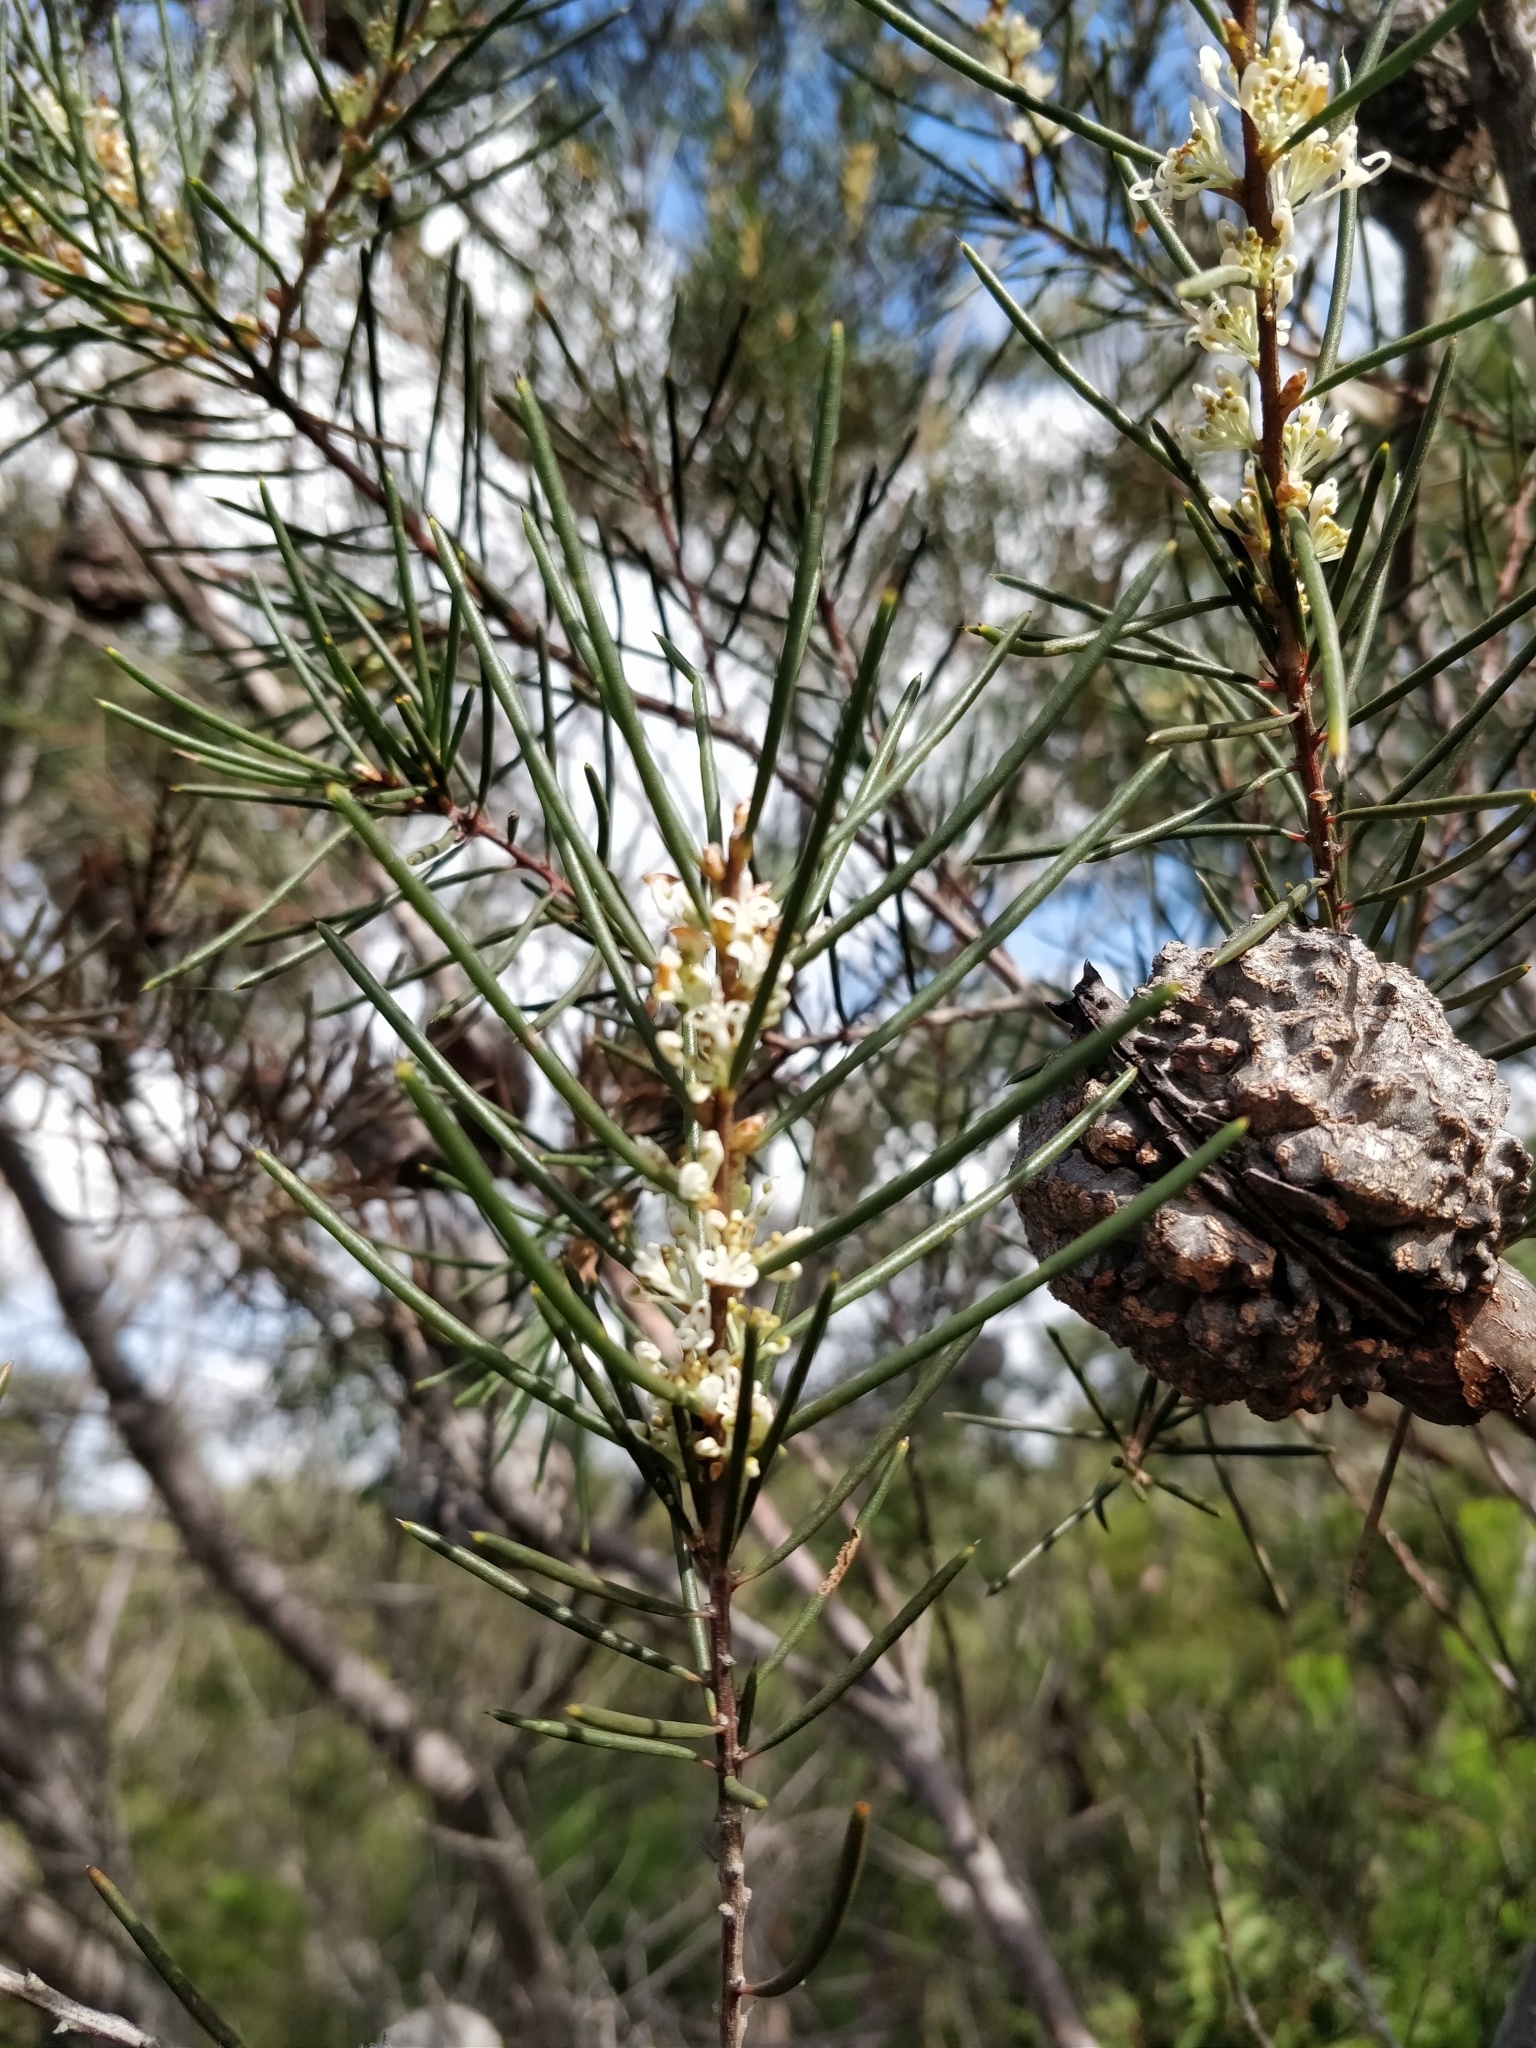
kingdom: Plantae
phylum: Tracheophyta
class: Magnoliopsida
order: Proteales
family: Proteaceae
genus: Hakea
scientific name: Hakea gibbosa
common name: Rock hakea
